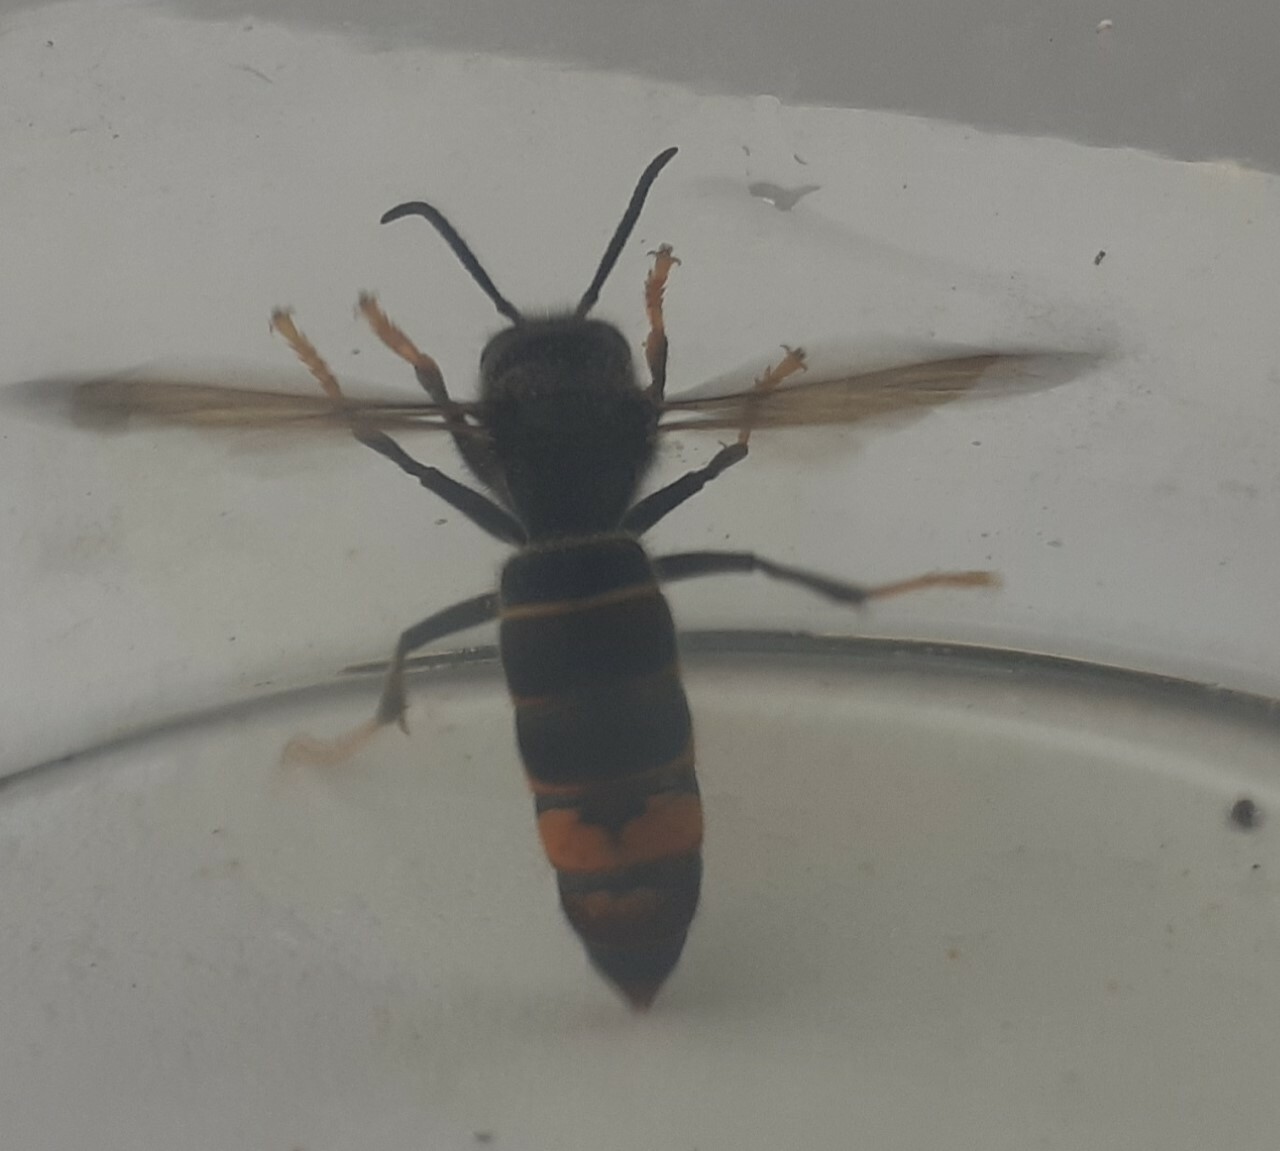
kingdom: Animalia
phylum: Arthropoda
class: Insecta
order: Hymenoptera
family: Vespidae
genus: Vespa
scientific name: Vespa velutina
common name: Asian hornet
